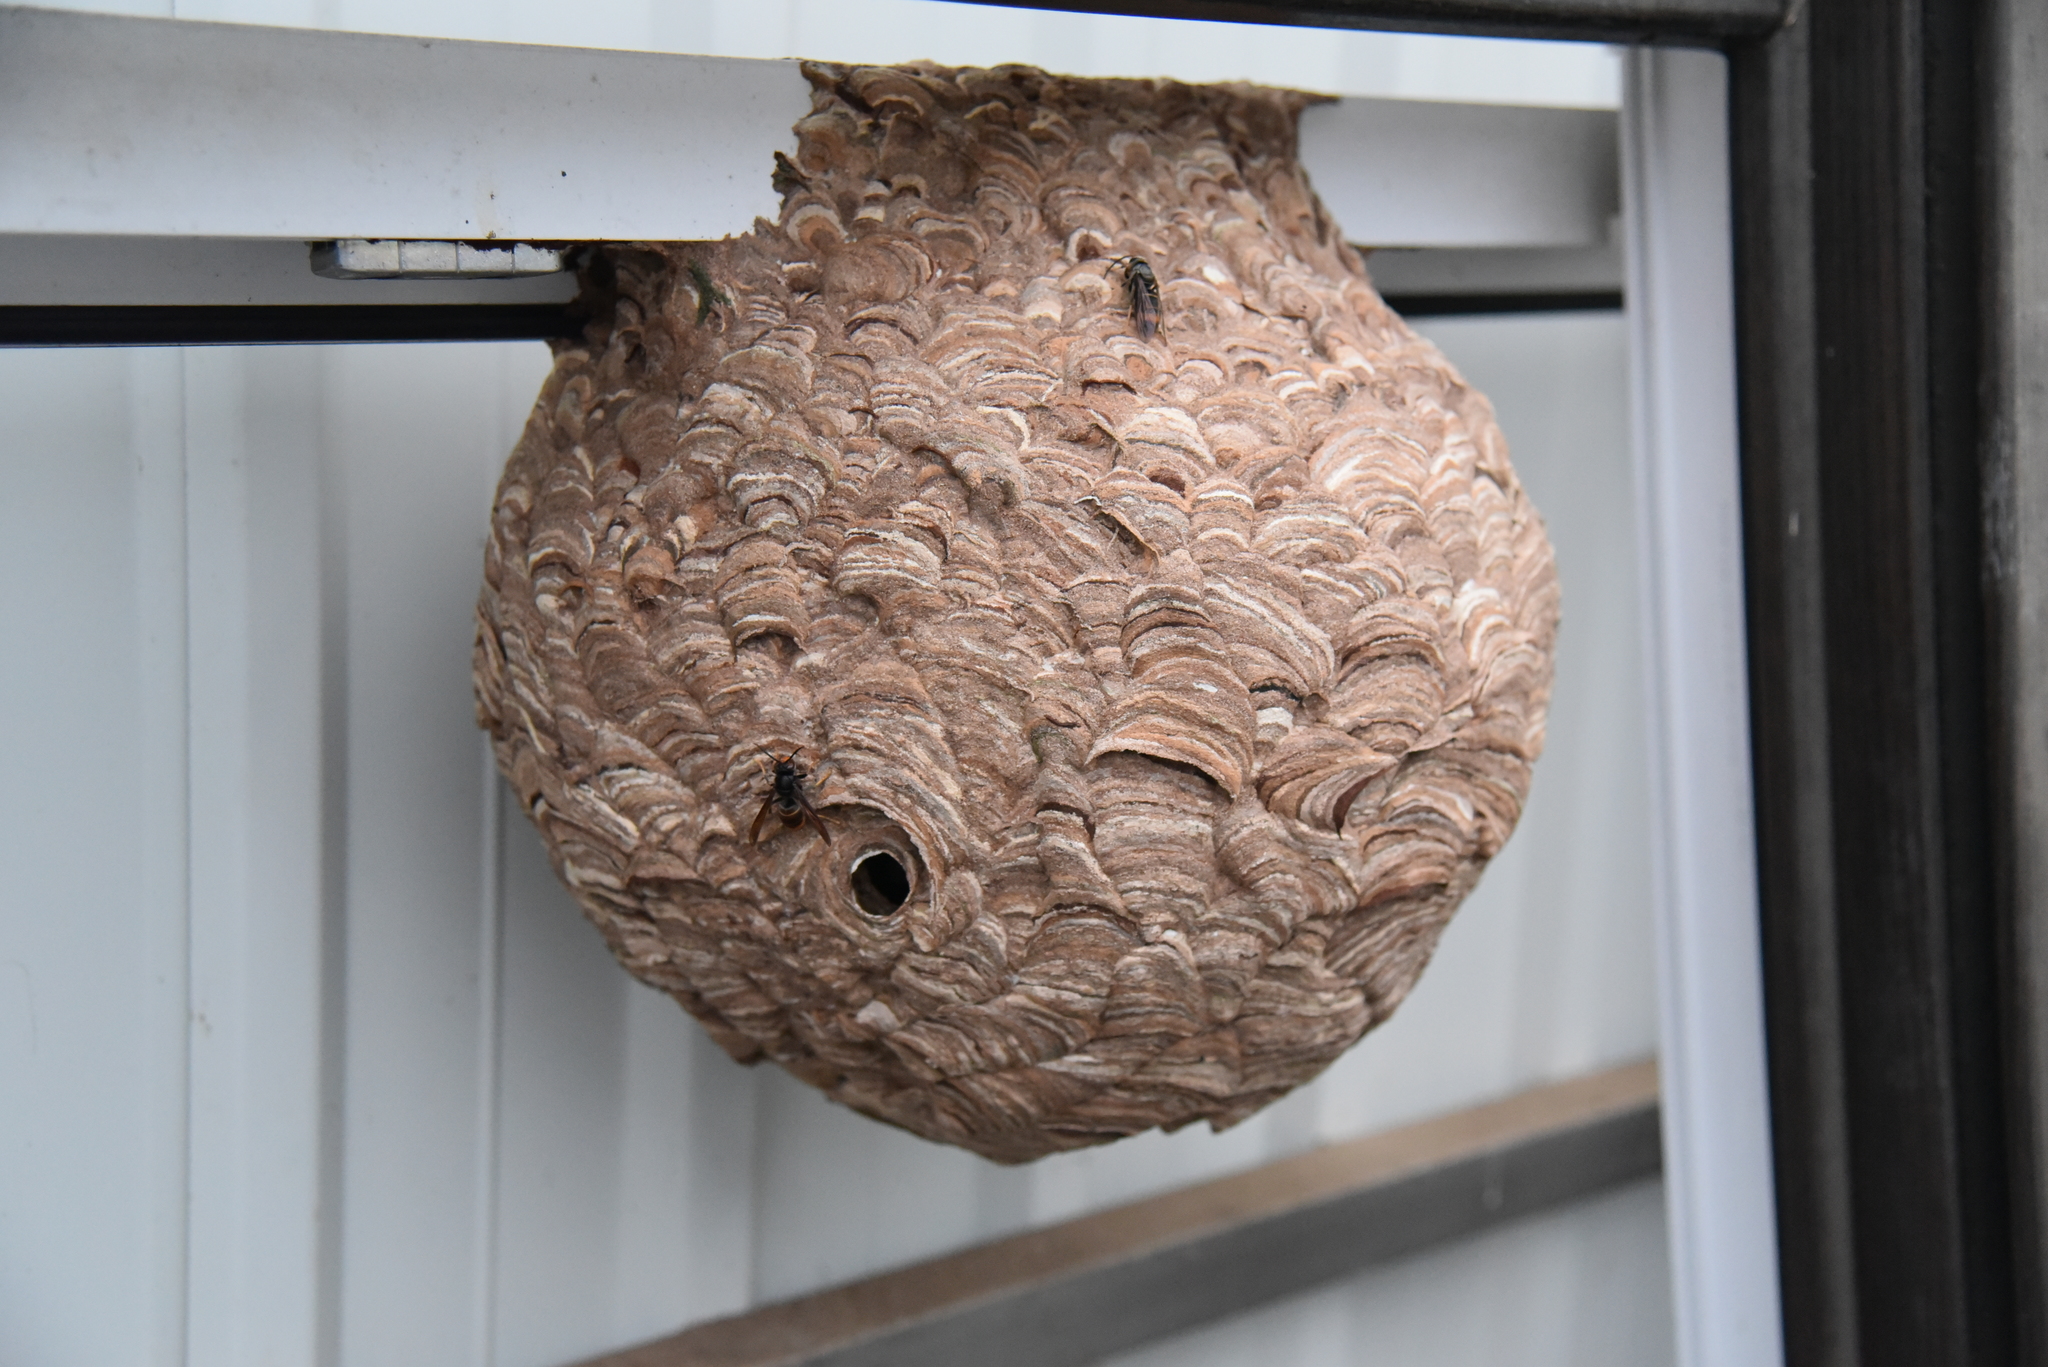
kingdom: Animalia
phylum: Arthropoda
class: Insecta
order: Hymenoptera
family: Vespidae
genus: Vespa
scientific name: Vespa velutina
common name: Asian hornet
